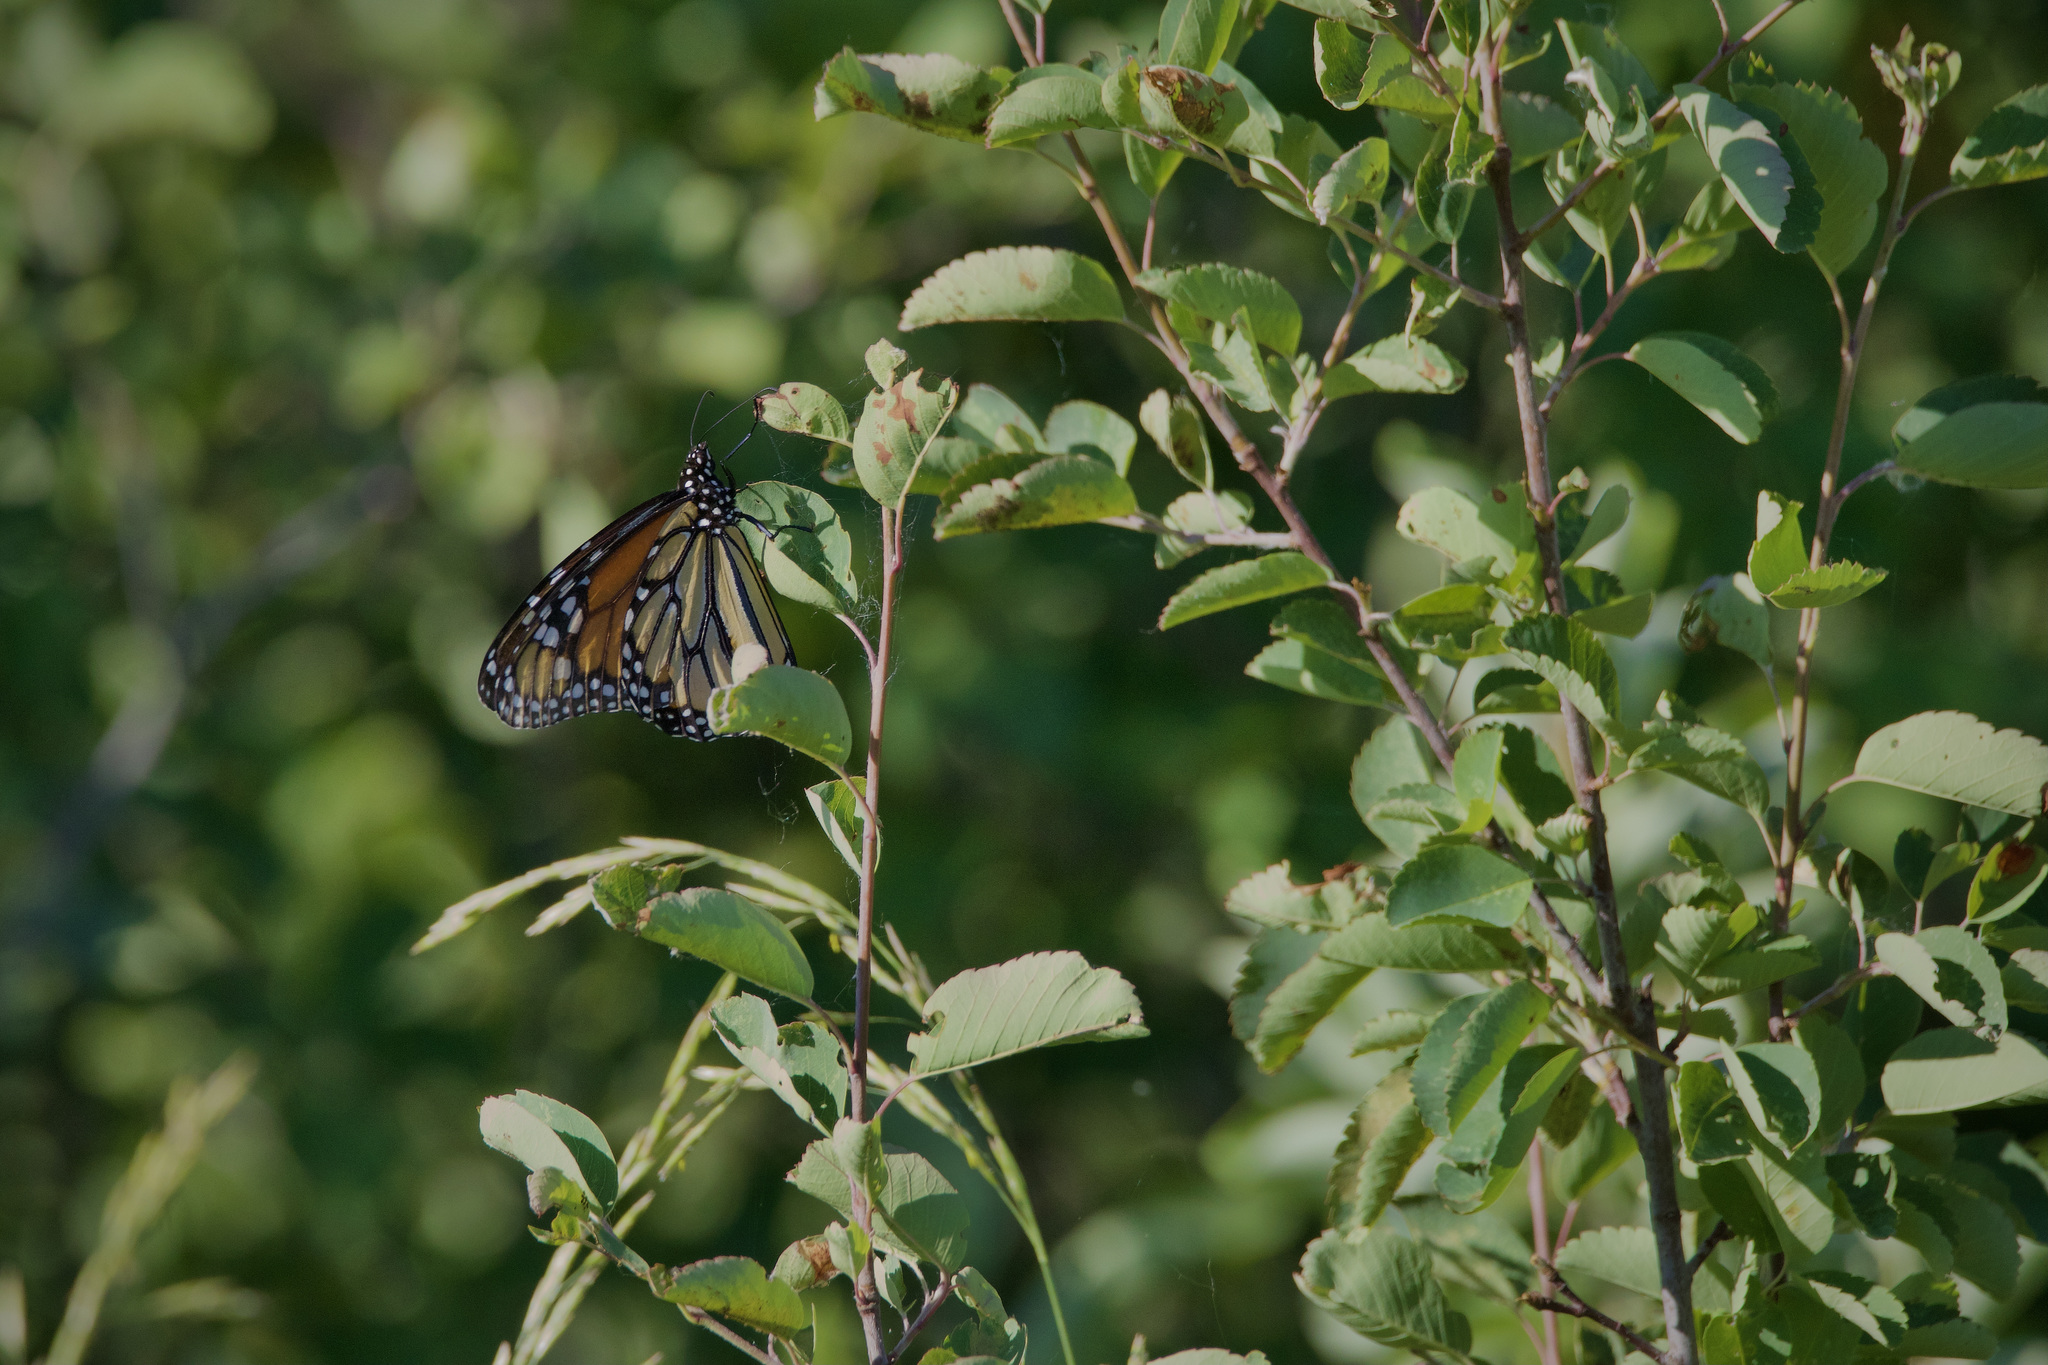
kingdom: Animalia
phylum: Arthropoda
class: Insecta
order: Lepidoptera
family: Nymphalidae
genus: Danaus
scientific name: Danaus plexippus
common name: Monarch
